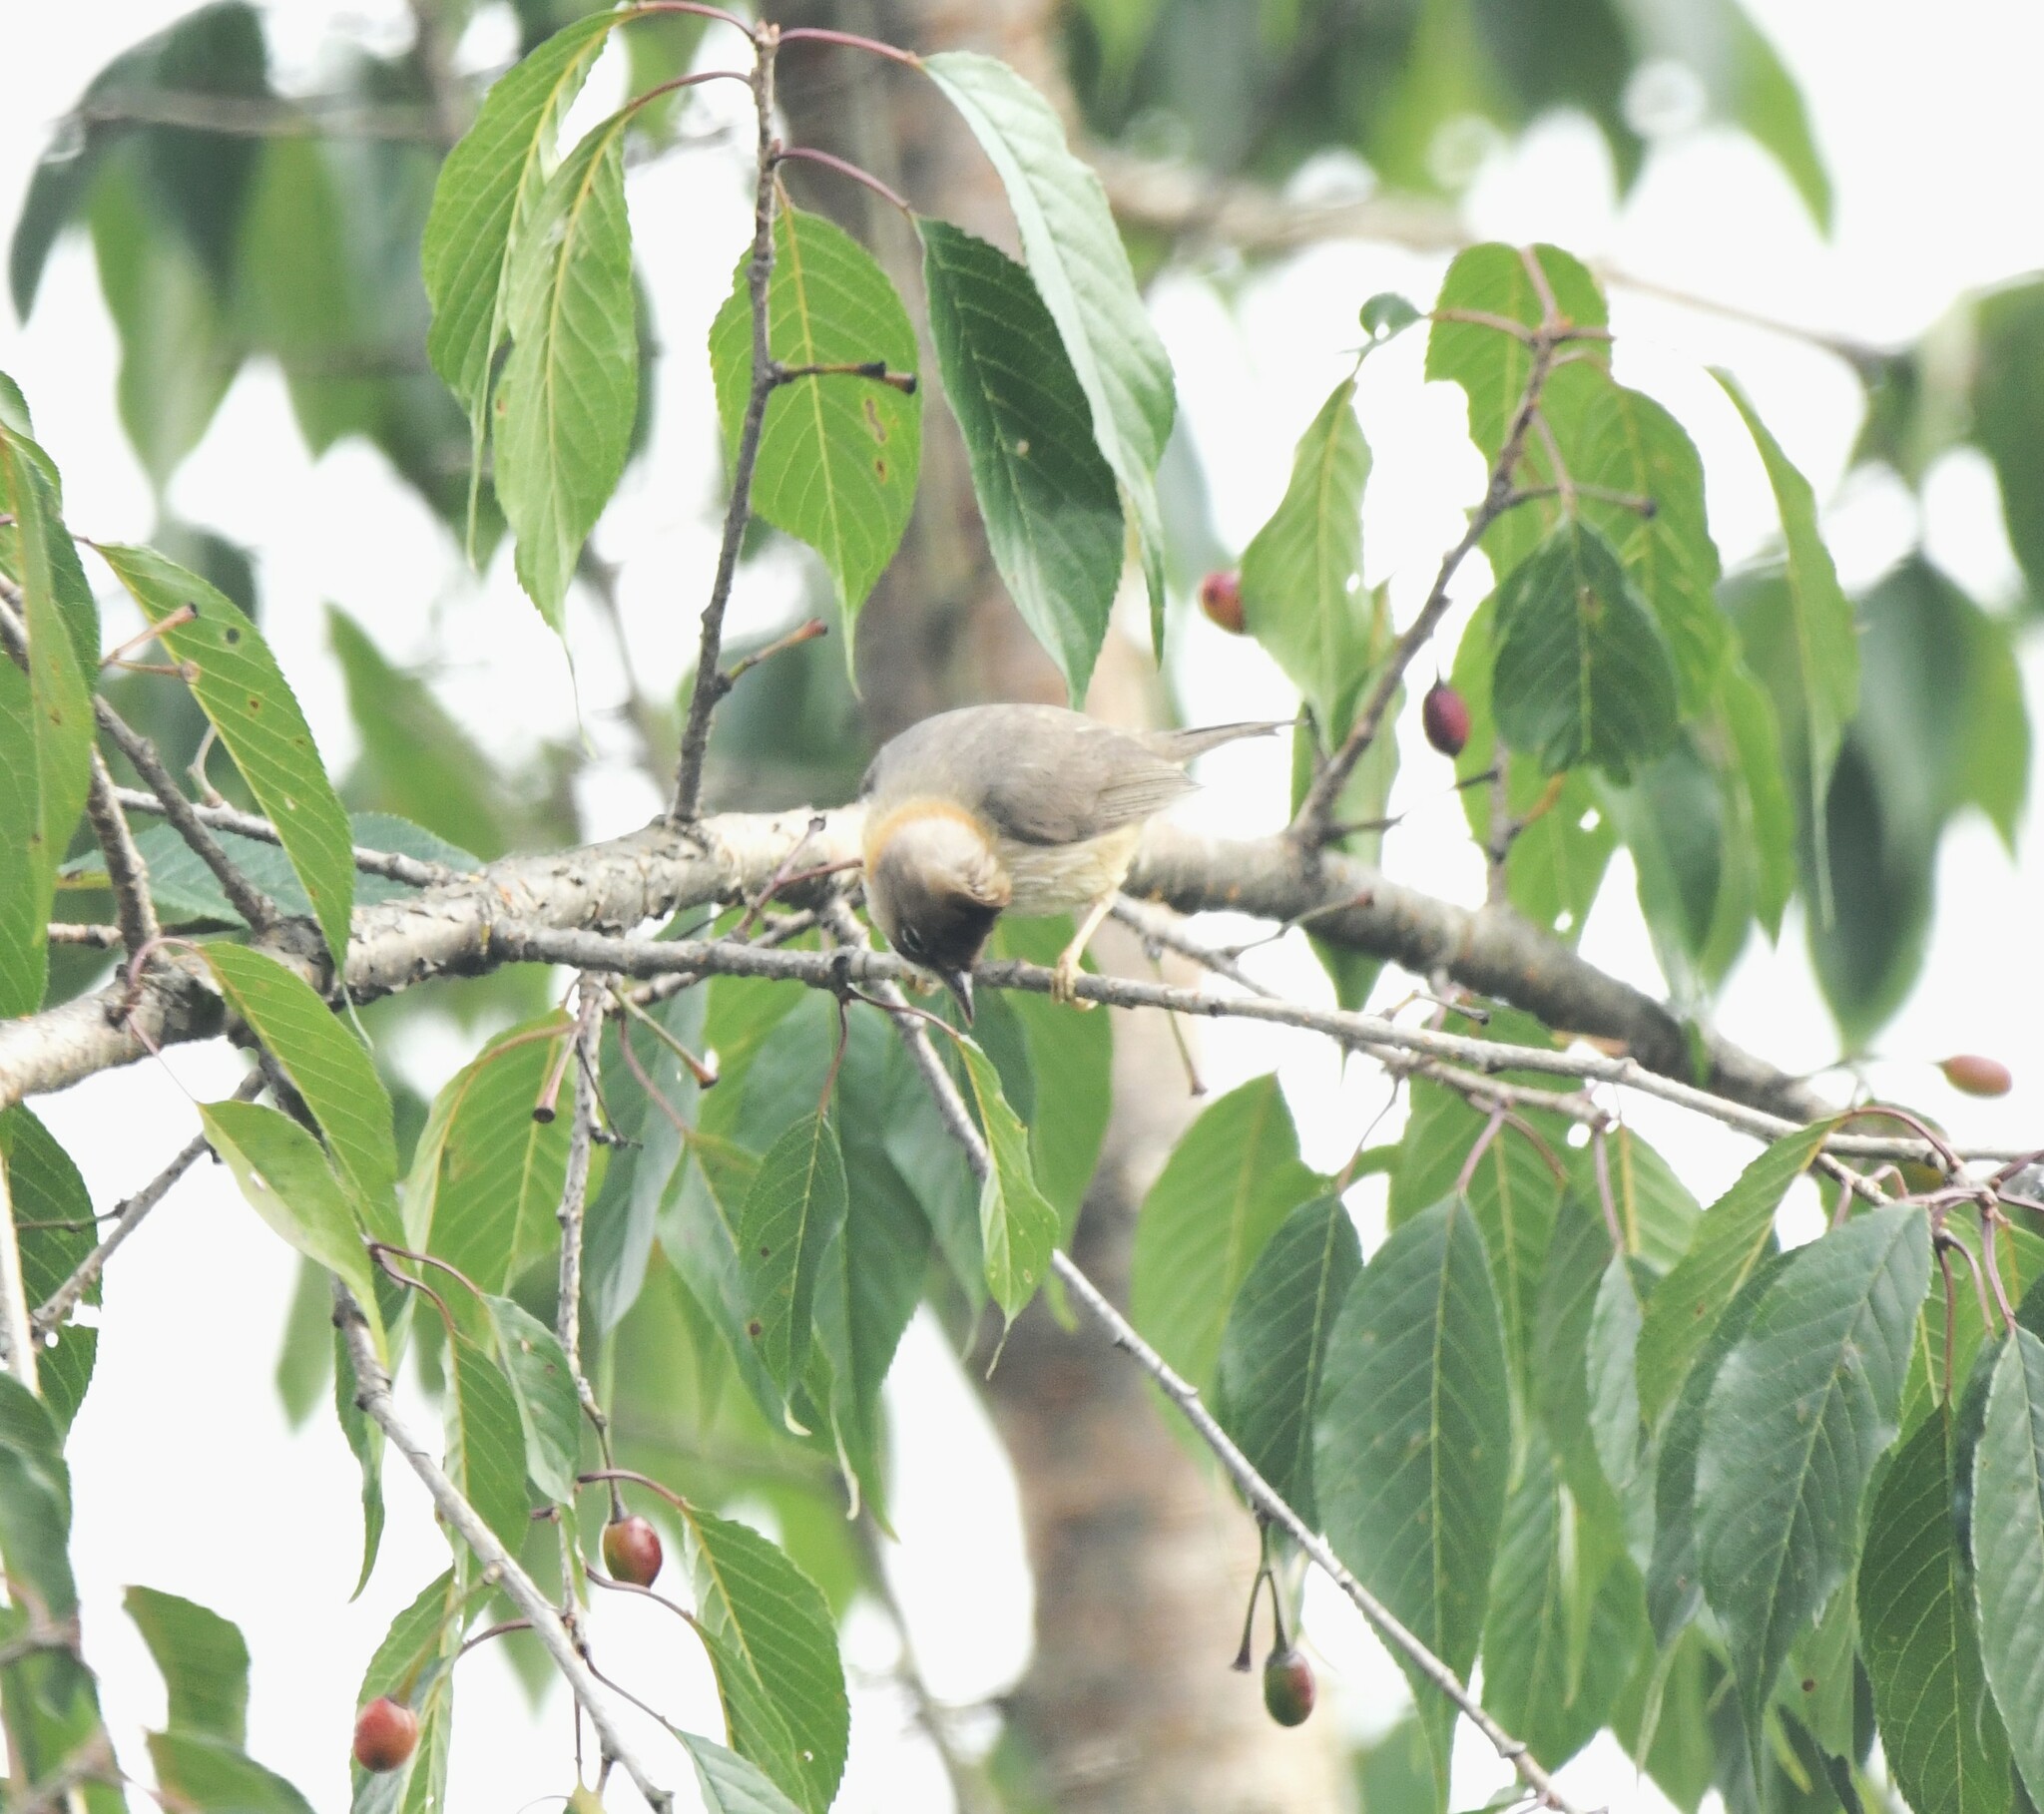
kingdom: Animalia
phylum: Chordata
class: Aves
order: Passeriformes
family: Zosteropidae
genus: Yuhina
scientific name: Yuhina flavicollis
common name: Whiskered yuhina
